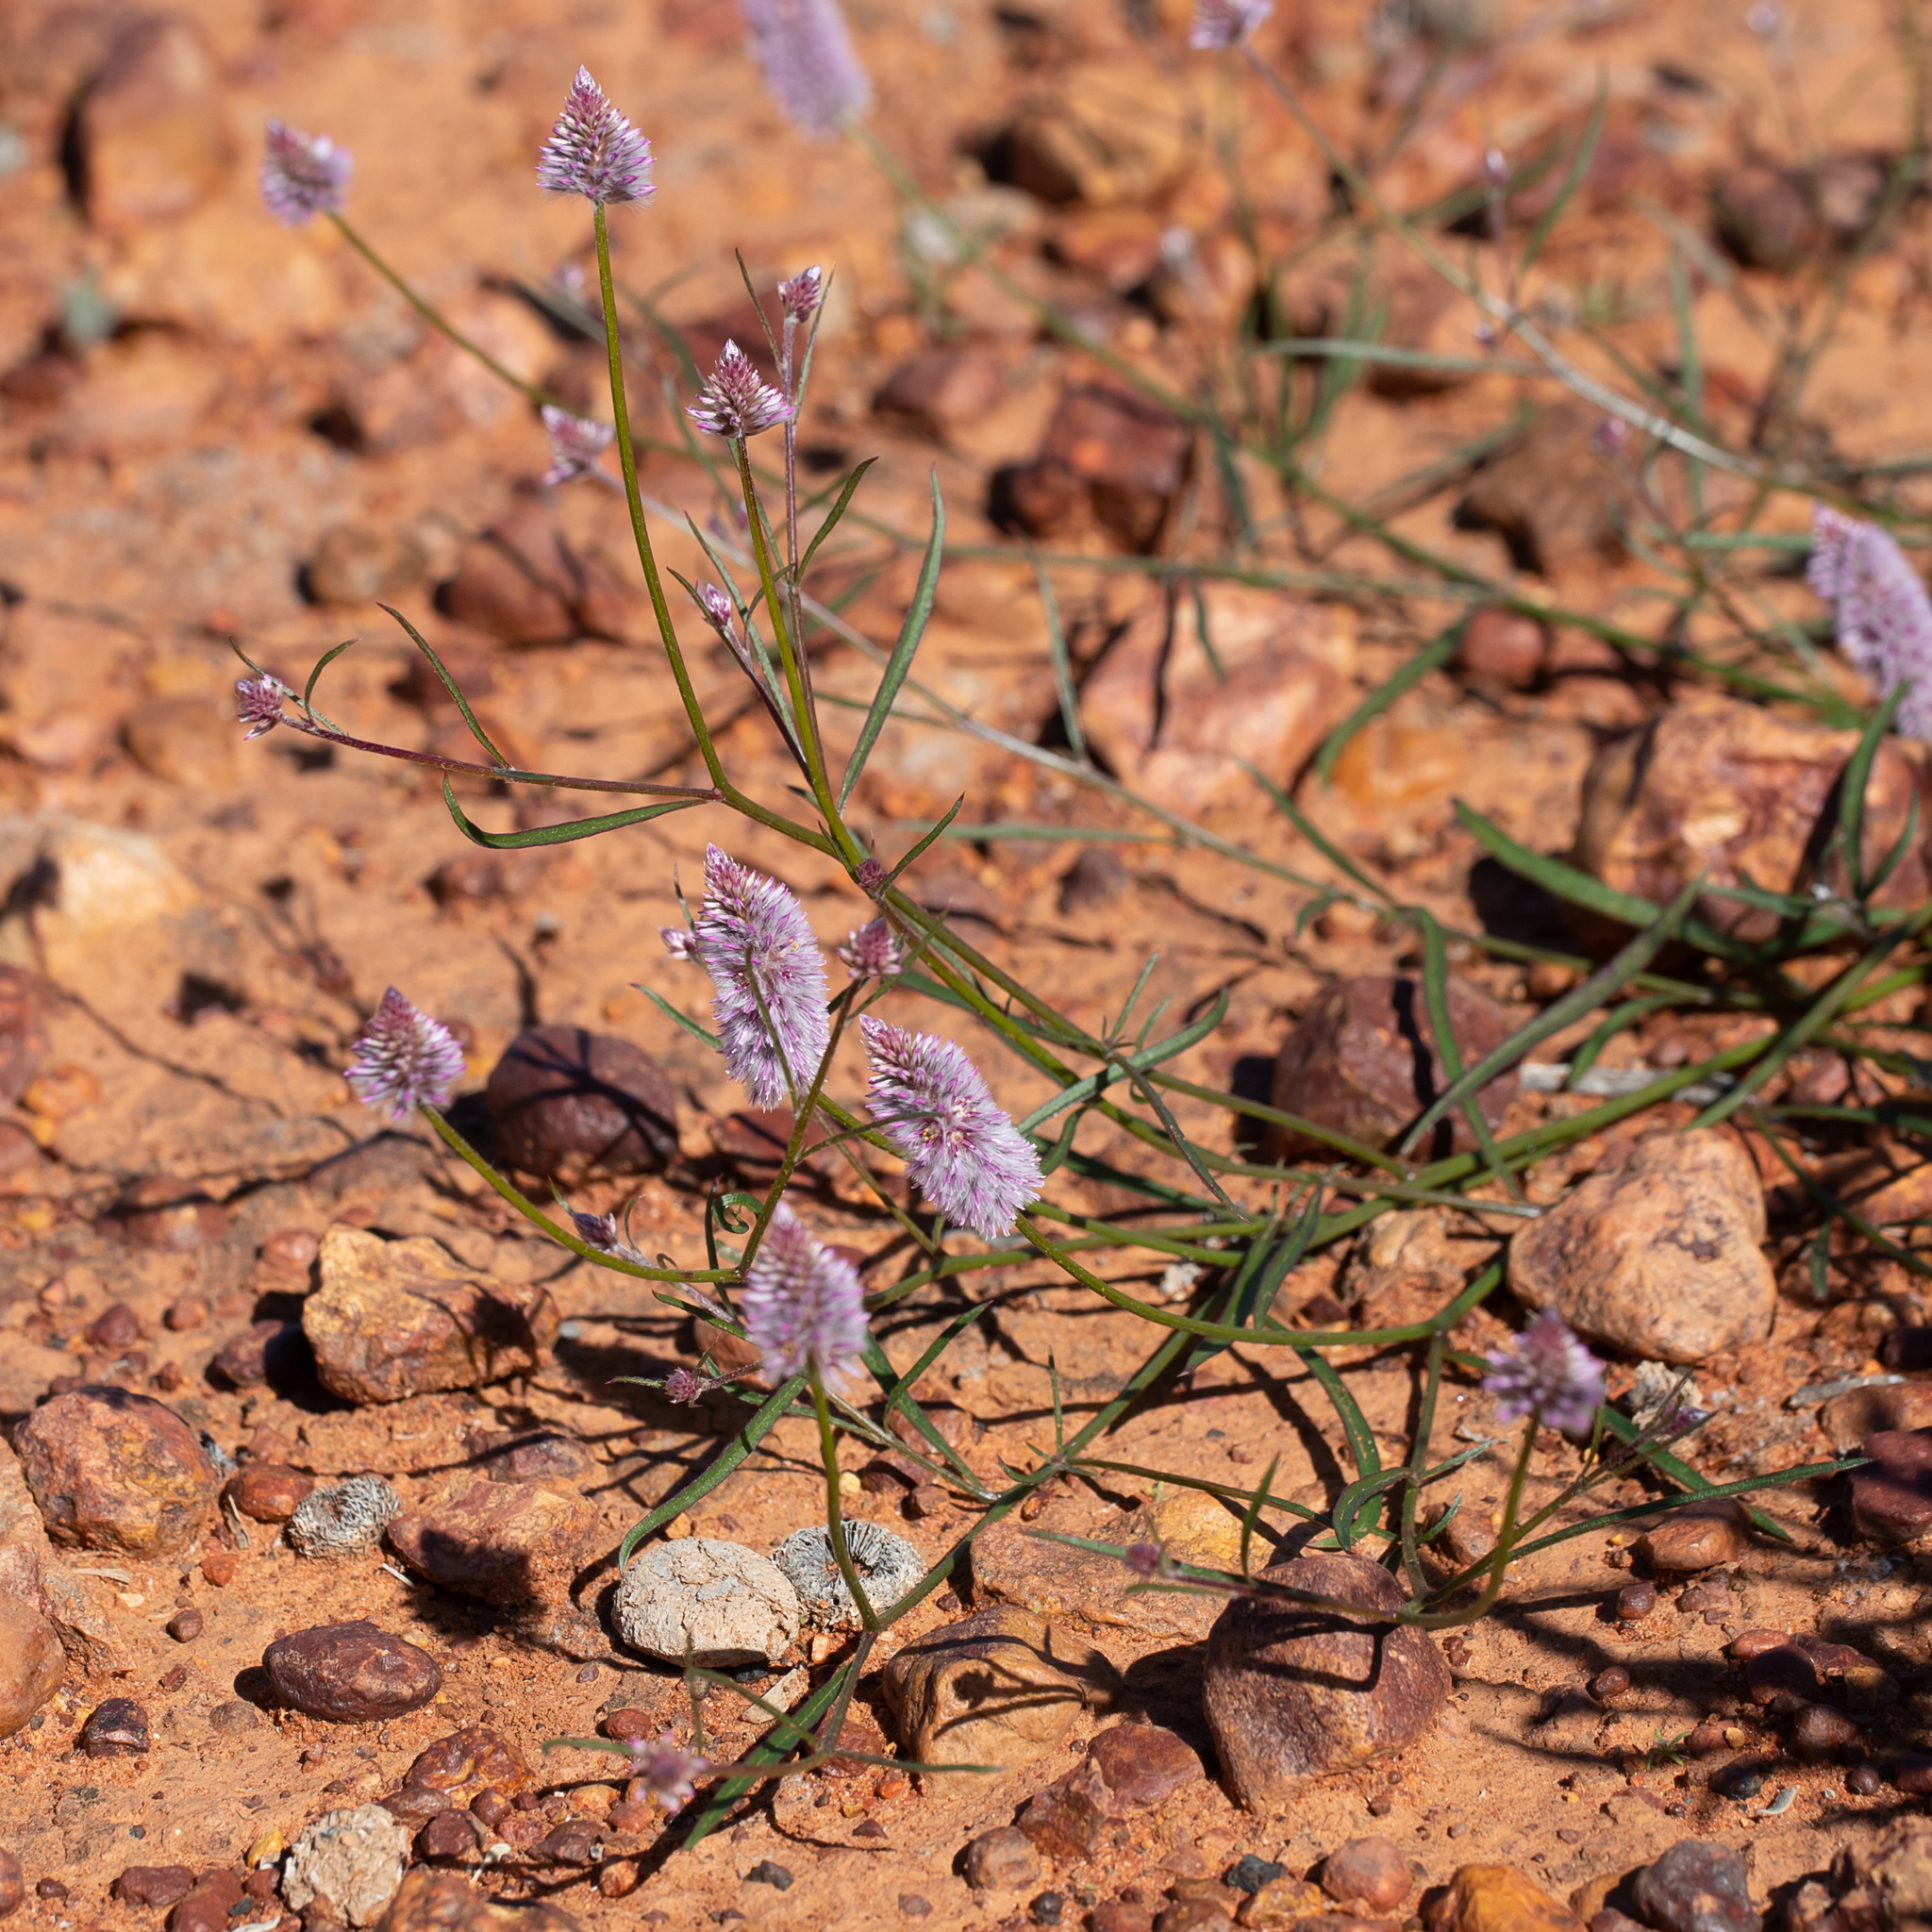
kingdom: Plantae
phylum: Tracheophyta
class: Magnoliopsida
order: Caryophyllales
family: Amaranthaceae
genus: Ptilotus
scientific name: Ptilotus leucocoma
